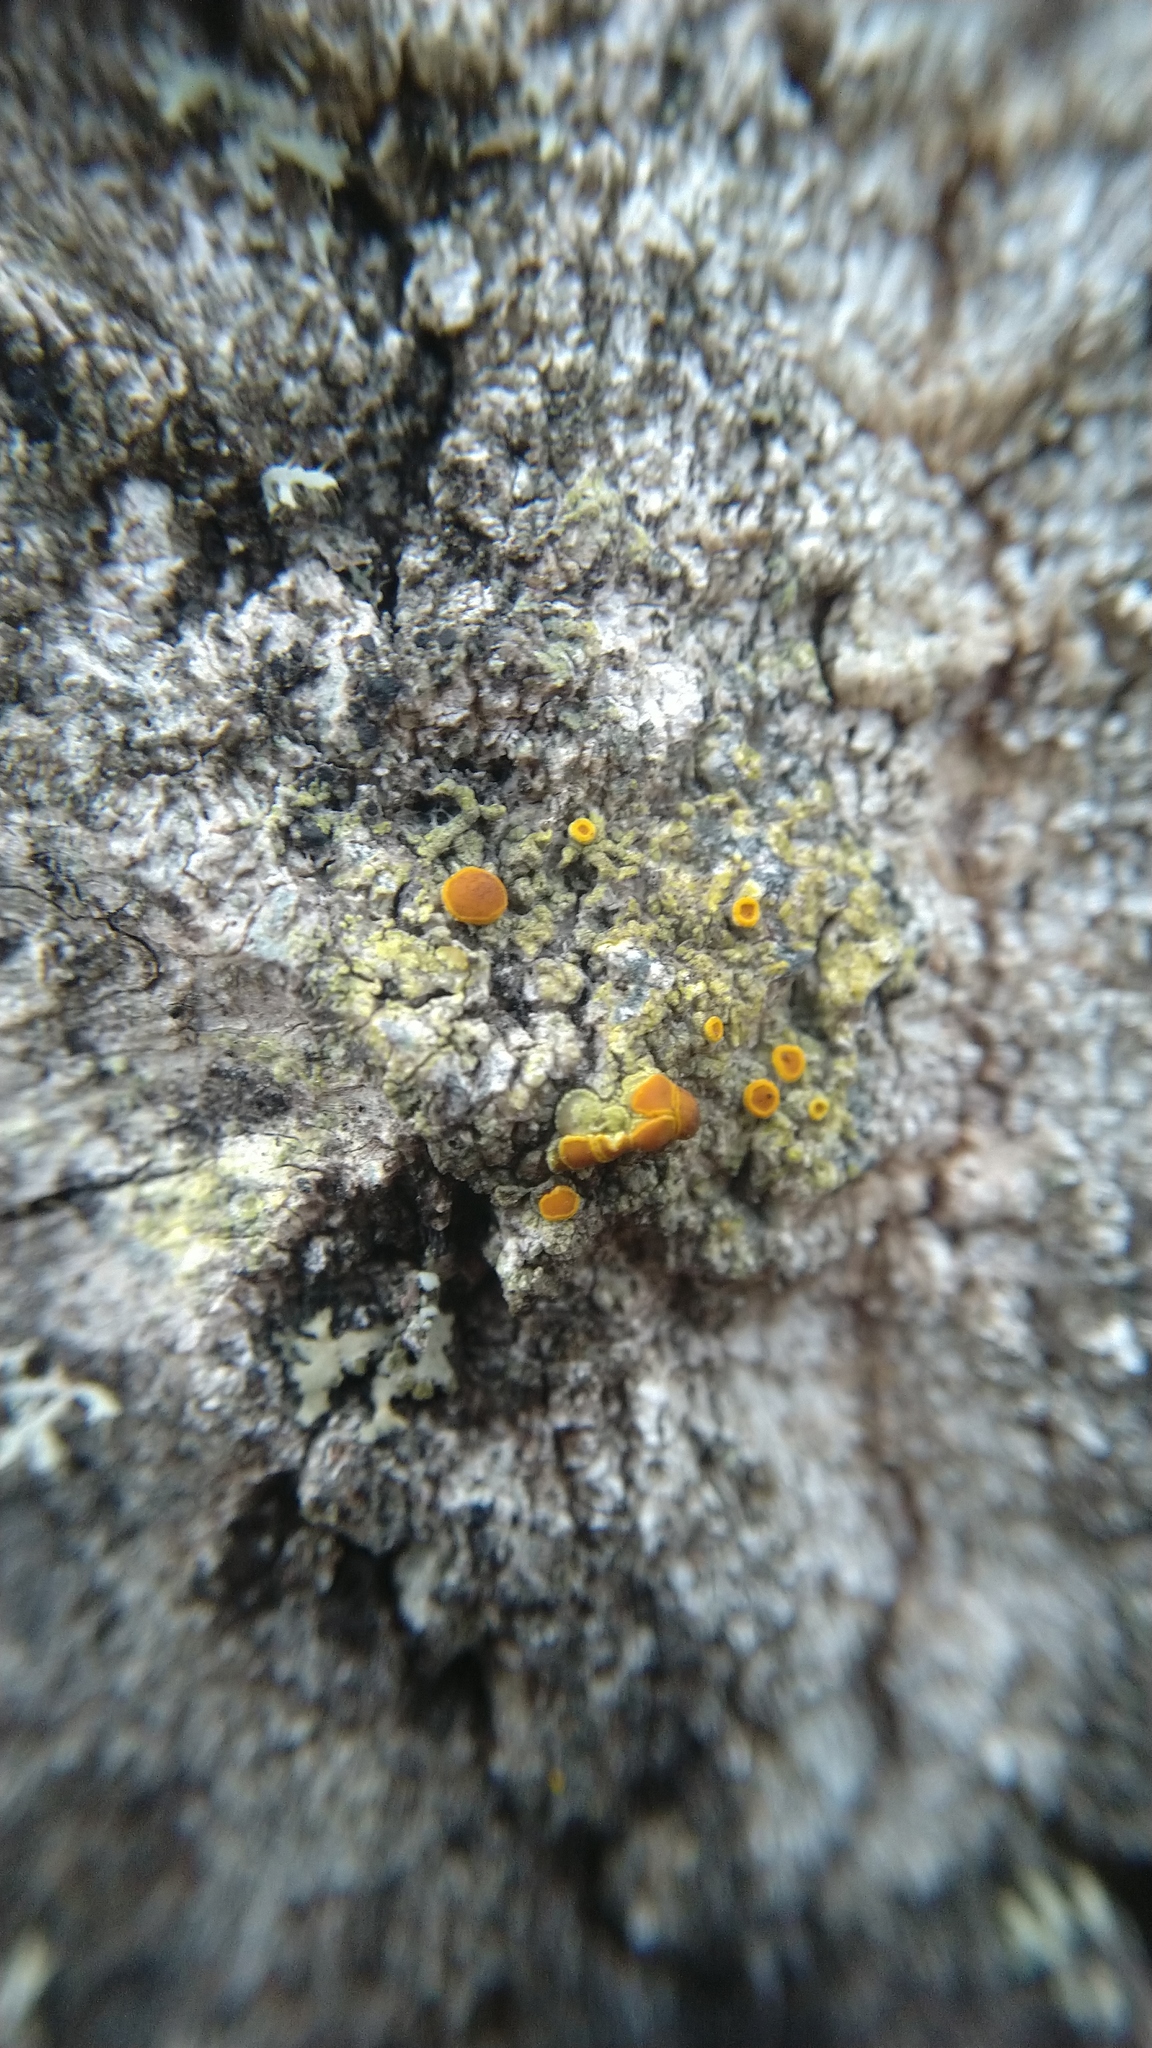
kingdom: Fungi
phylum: Ascomycota
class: Lecanoromycetes
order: Teloschistales
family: Teloschistaceae
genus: Opeltia
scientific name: Opeltia flavorubescens
